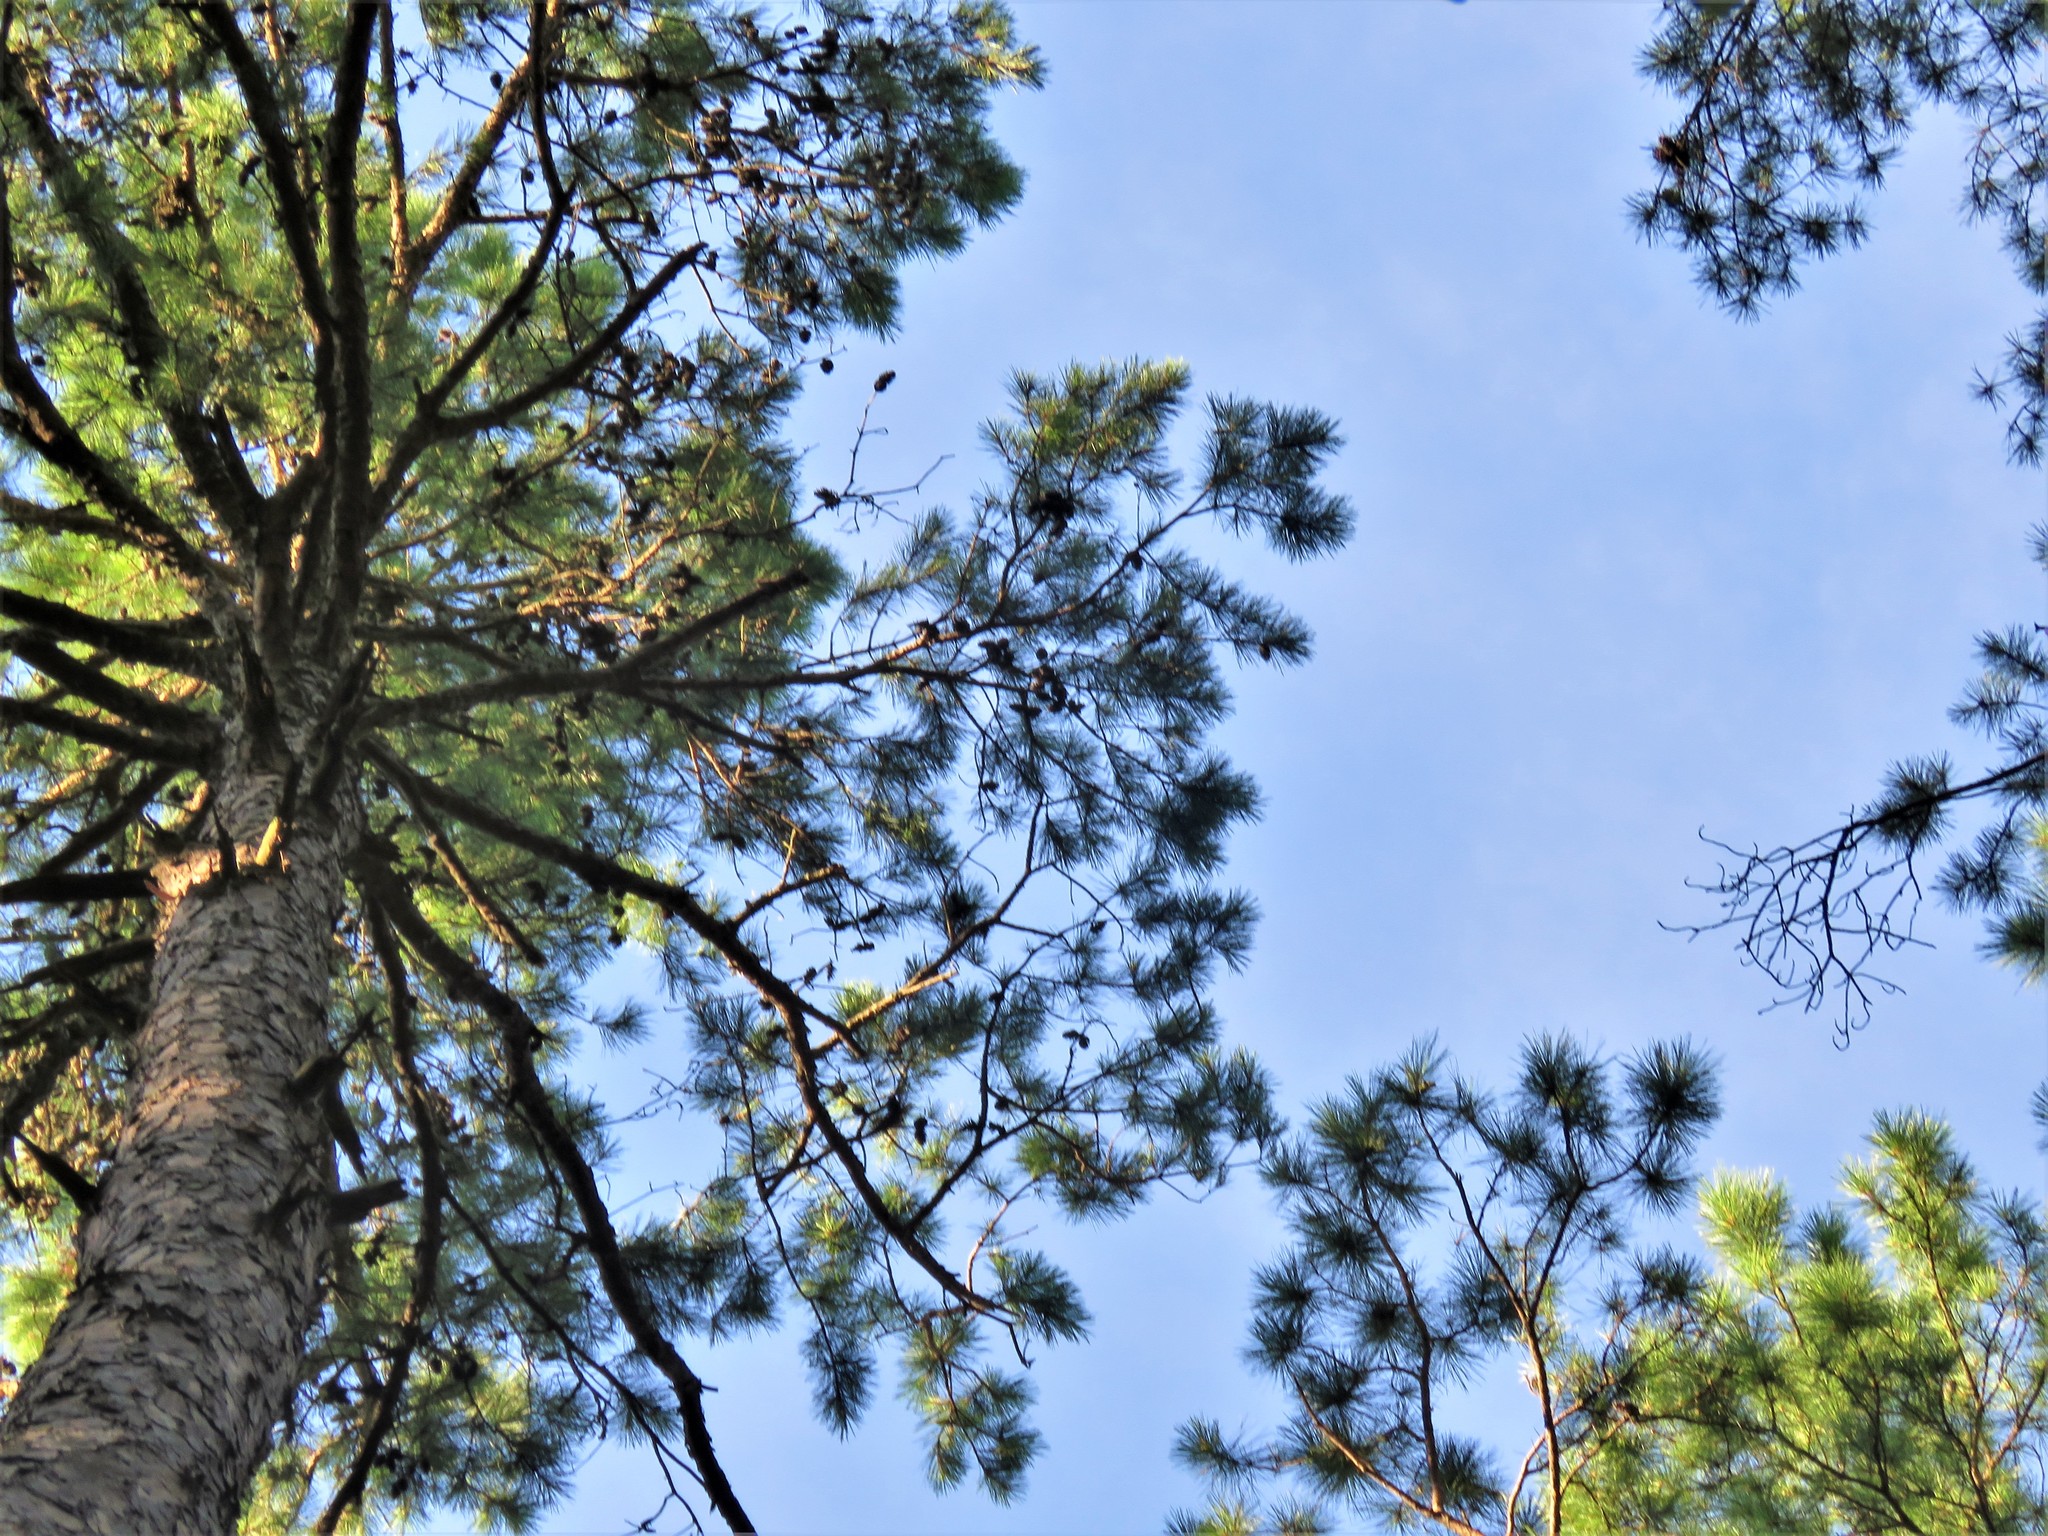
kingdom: Plantae
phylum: Tracheophyta
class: Pinopsida
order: Pinales
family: Pinaceae
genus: Pinus
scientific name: Pinus echinata
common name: Shortleaf pine
